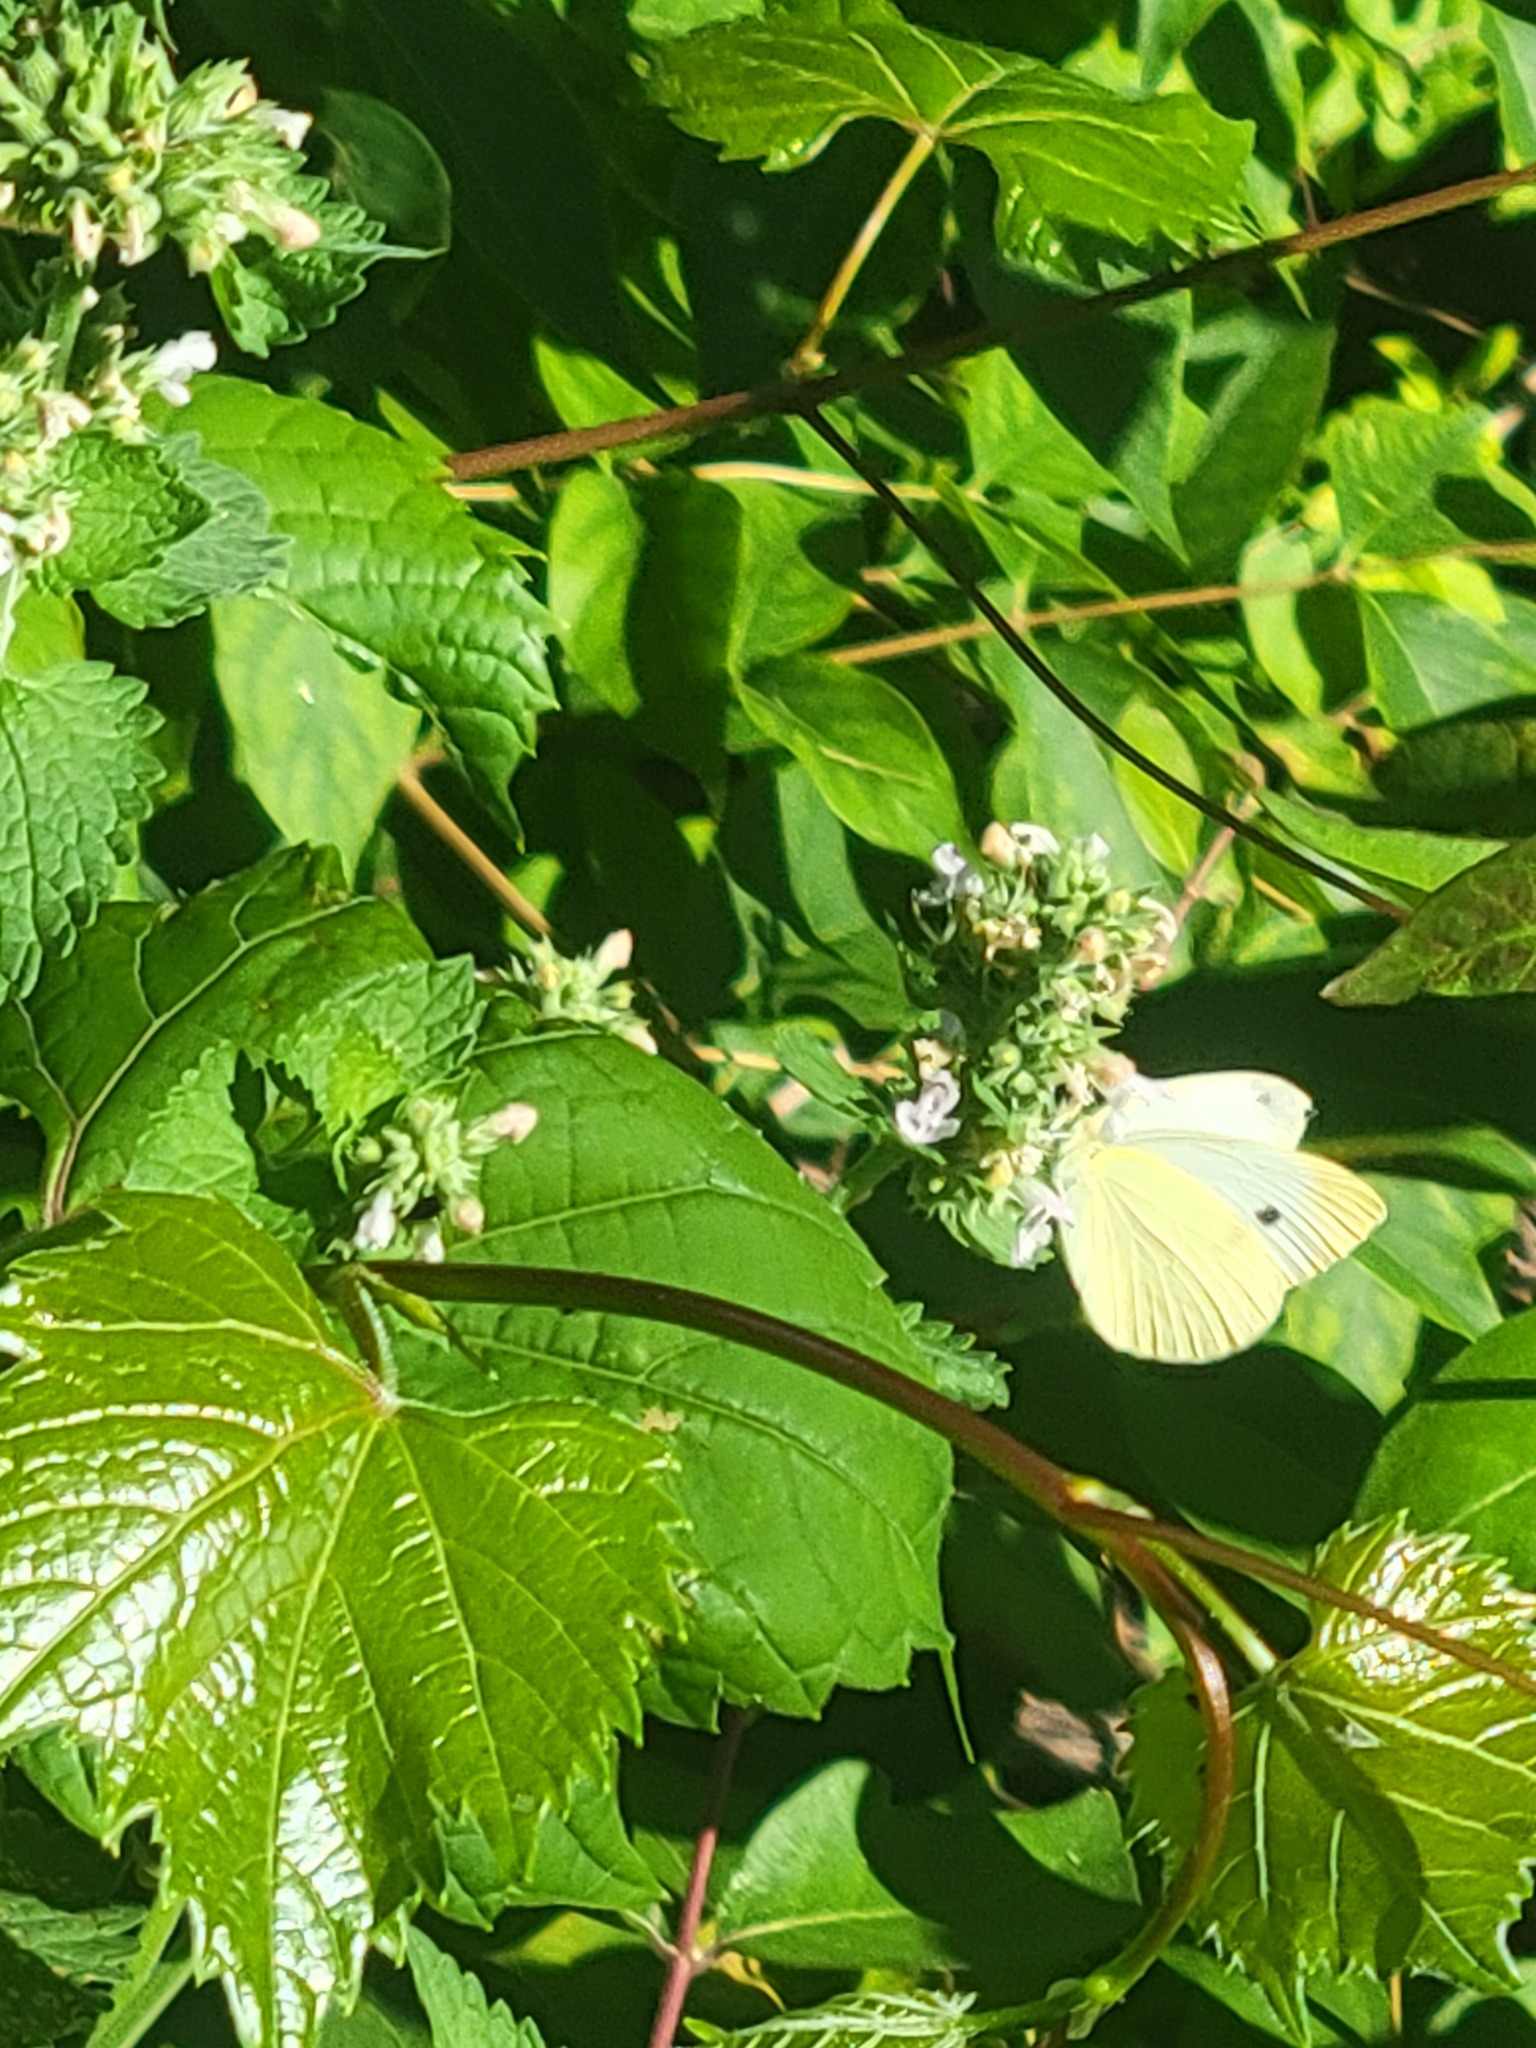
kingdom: Plantae
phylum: Tracheophyta
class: Magnoliopsida
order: Lamiales
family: Lamiaceae
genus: Nepeta
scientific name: Nepeta cataria
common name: Catnip
